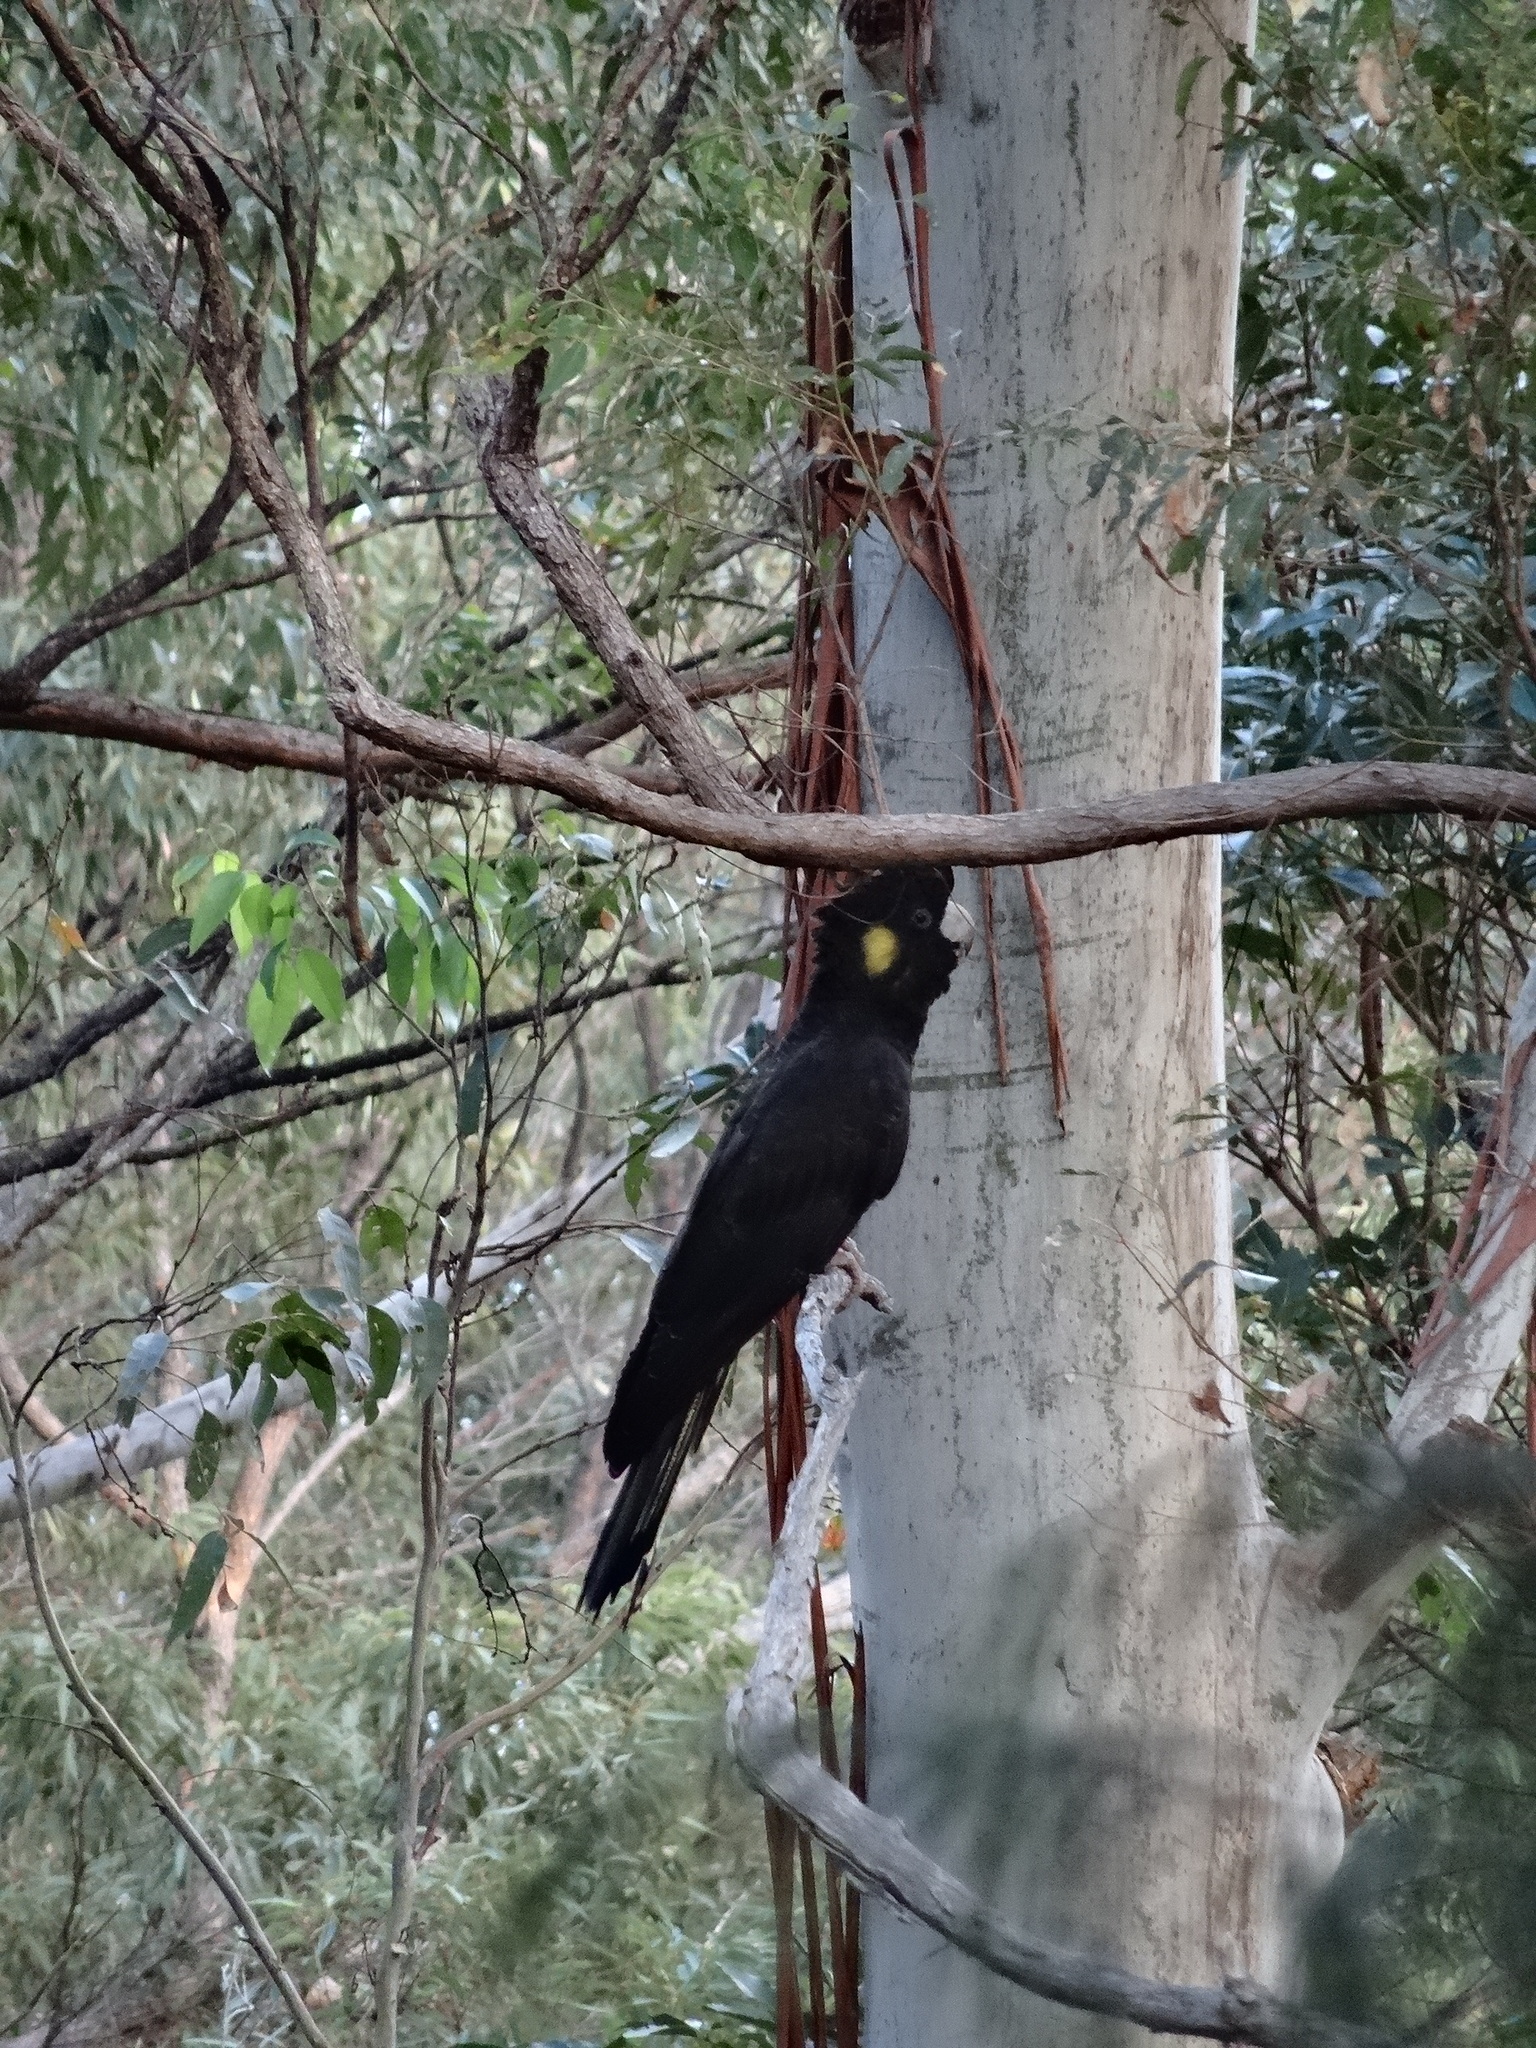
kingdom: Animalia
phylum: Chordata
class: Aves
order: Psittaciformes
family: Cacatuidae
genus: Zanda
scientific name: Zanda funerea
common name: Yellow-tailed black-cockatoo
